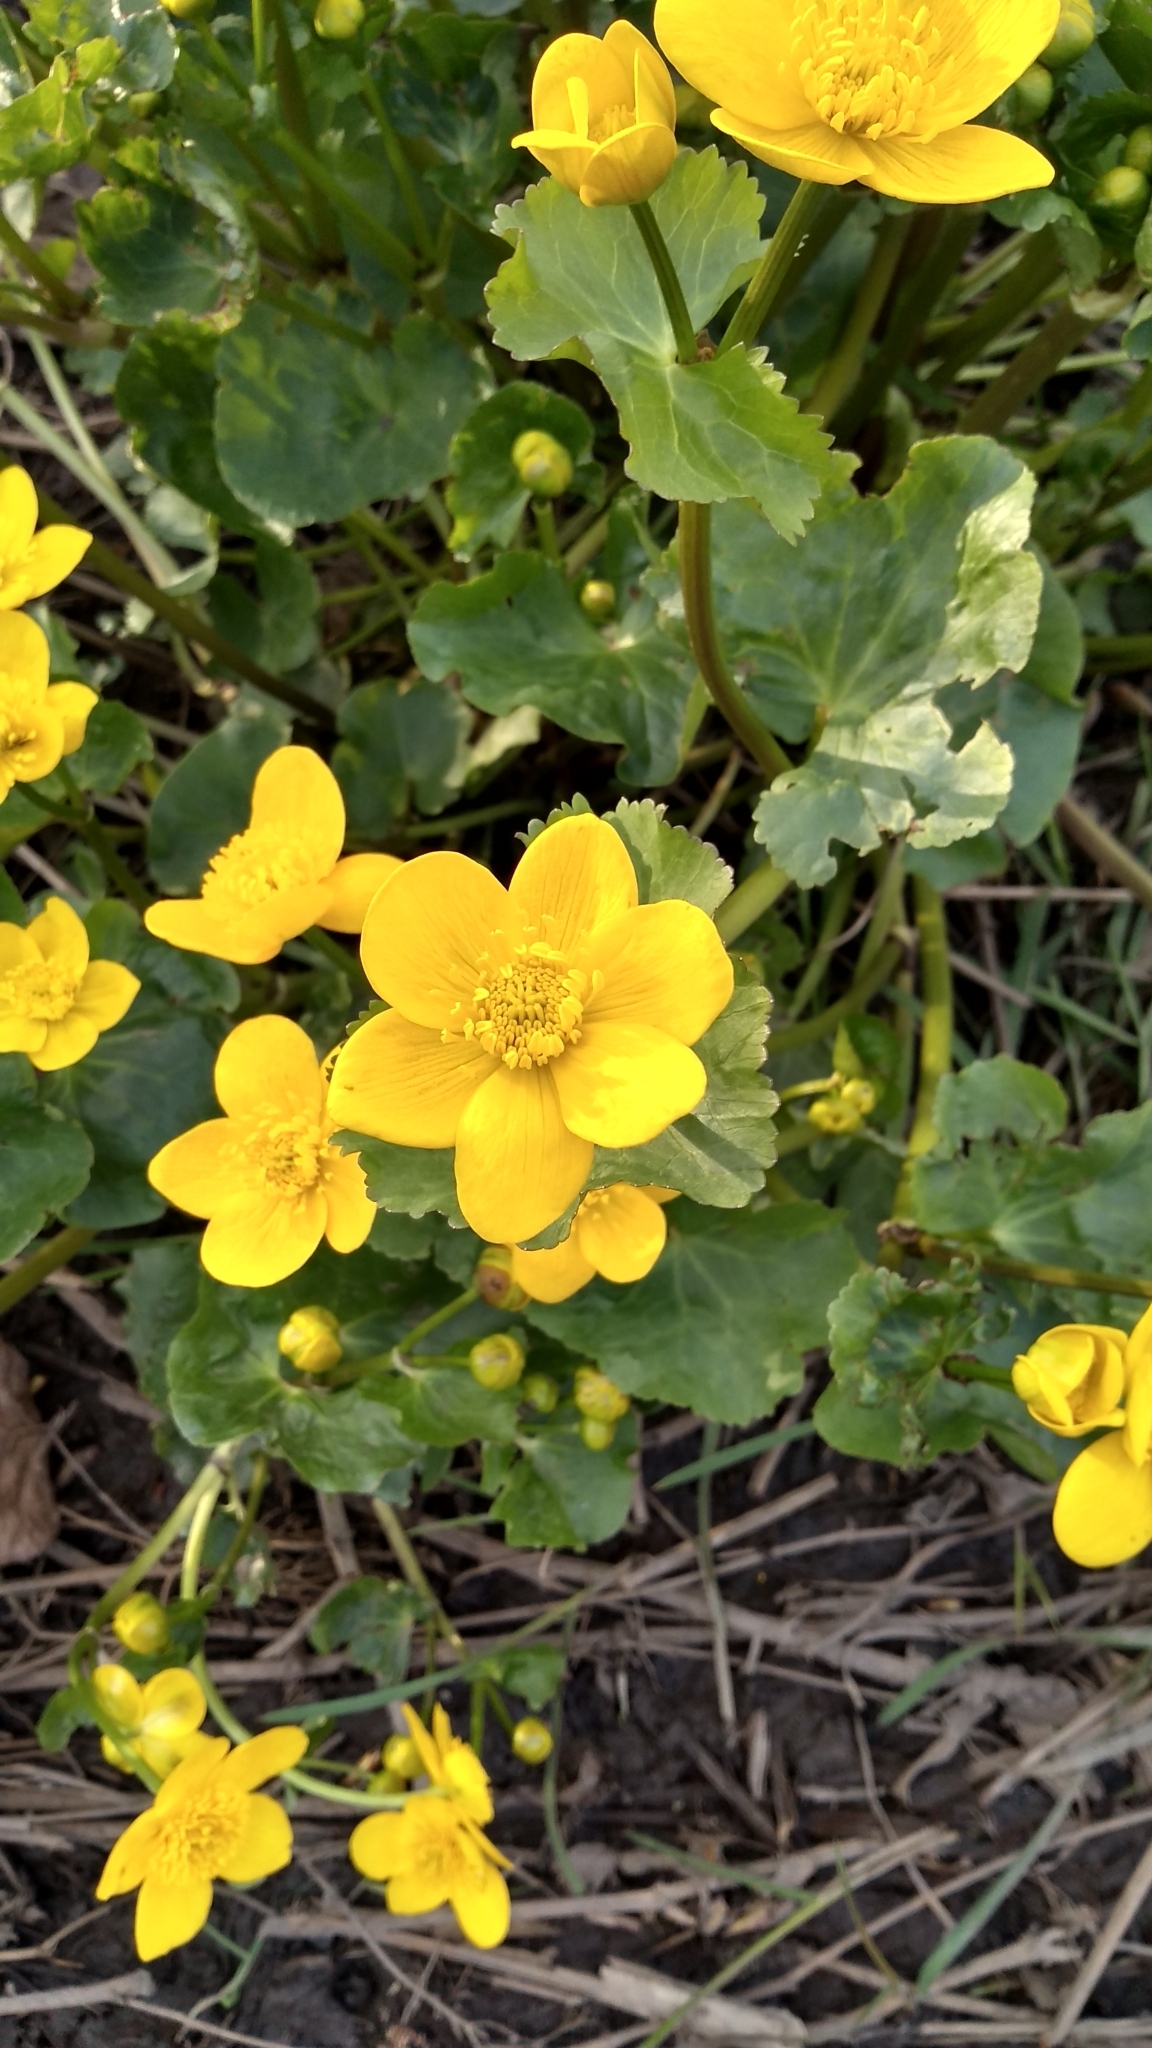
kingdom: Plantae
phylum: Tracheophyta
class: Magnoliopsida
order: Ranunculales
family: Ranunculaceae
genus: Caltha
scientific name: Caltha palustris
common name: Marsh marigold
